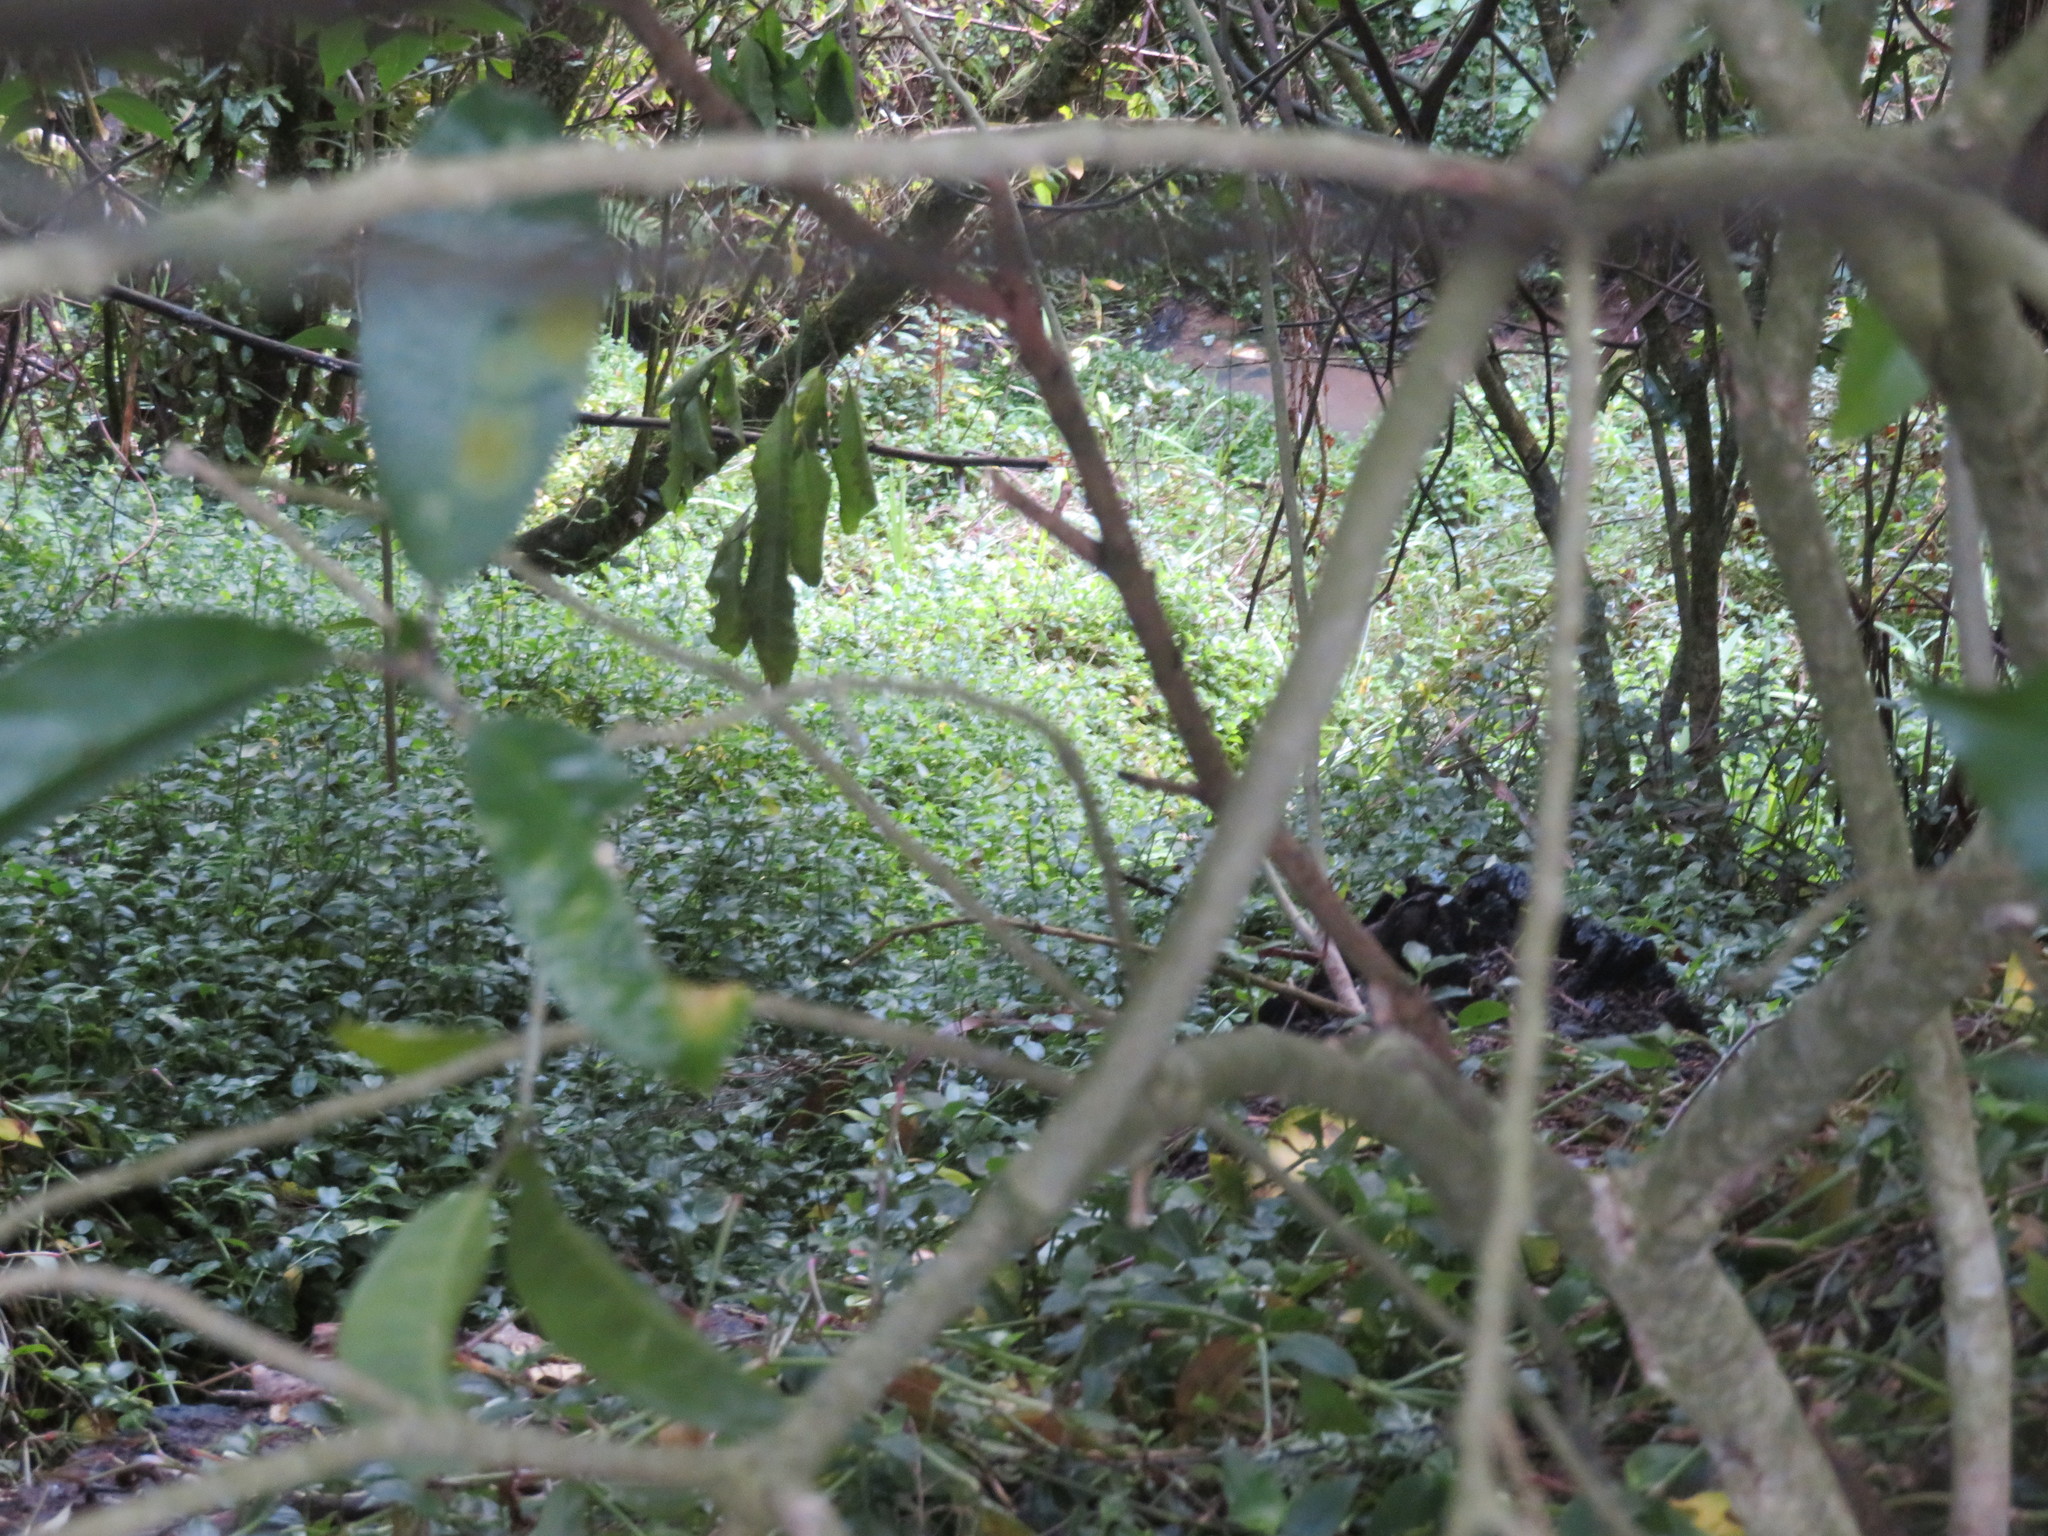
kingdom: Plantae
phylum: Tracheophyta
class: Liliopsida
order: Commelinales
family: Commelinaceae
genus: Tradescantia
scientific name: Tradescantia fluminensis
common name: Wandering-jew
